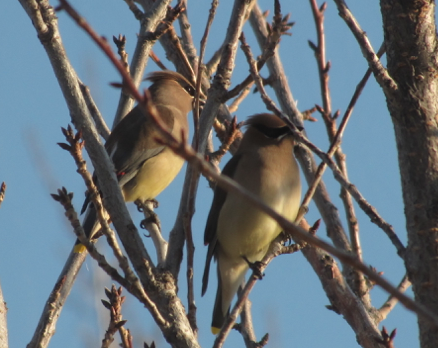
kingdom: Animalia
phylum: Chordata
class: Aves
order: Passeriformes
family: Bombycillidae
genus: Bombycilla
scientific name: Bombycilla cedrorum
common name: Cedar waxwing
